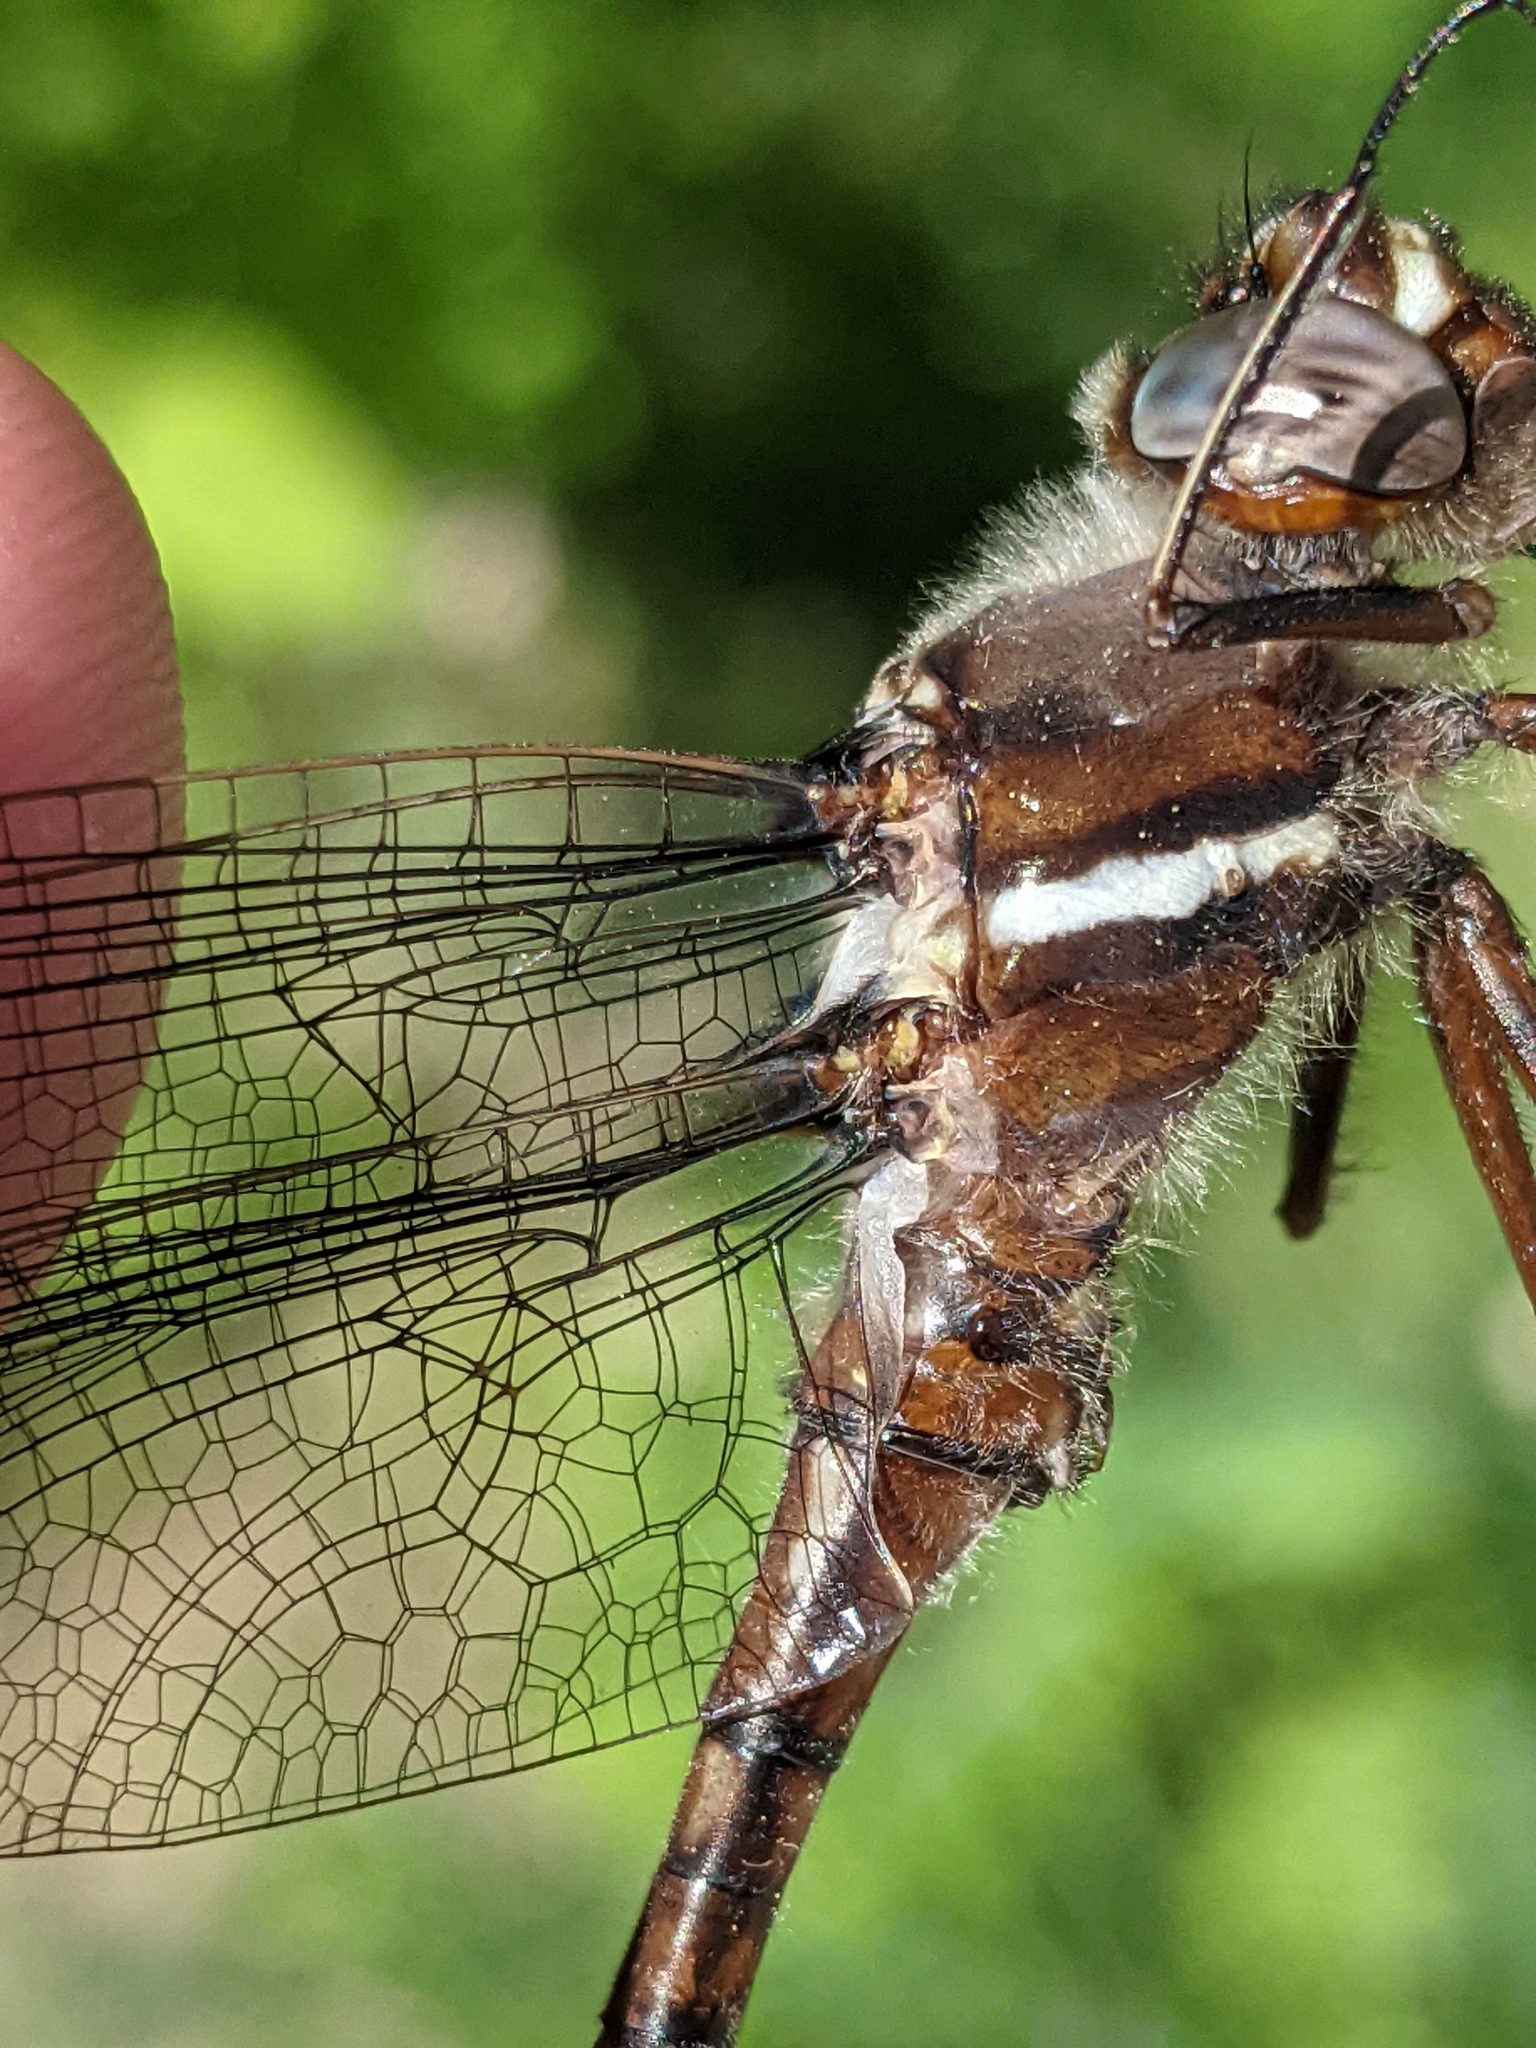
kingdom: Animalia
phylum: Arthropoda
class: Insecta
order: Odonata
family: Macromiidae
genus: Didymops
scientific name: Didymops transversa
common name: Stream cruiser
